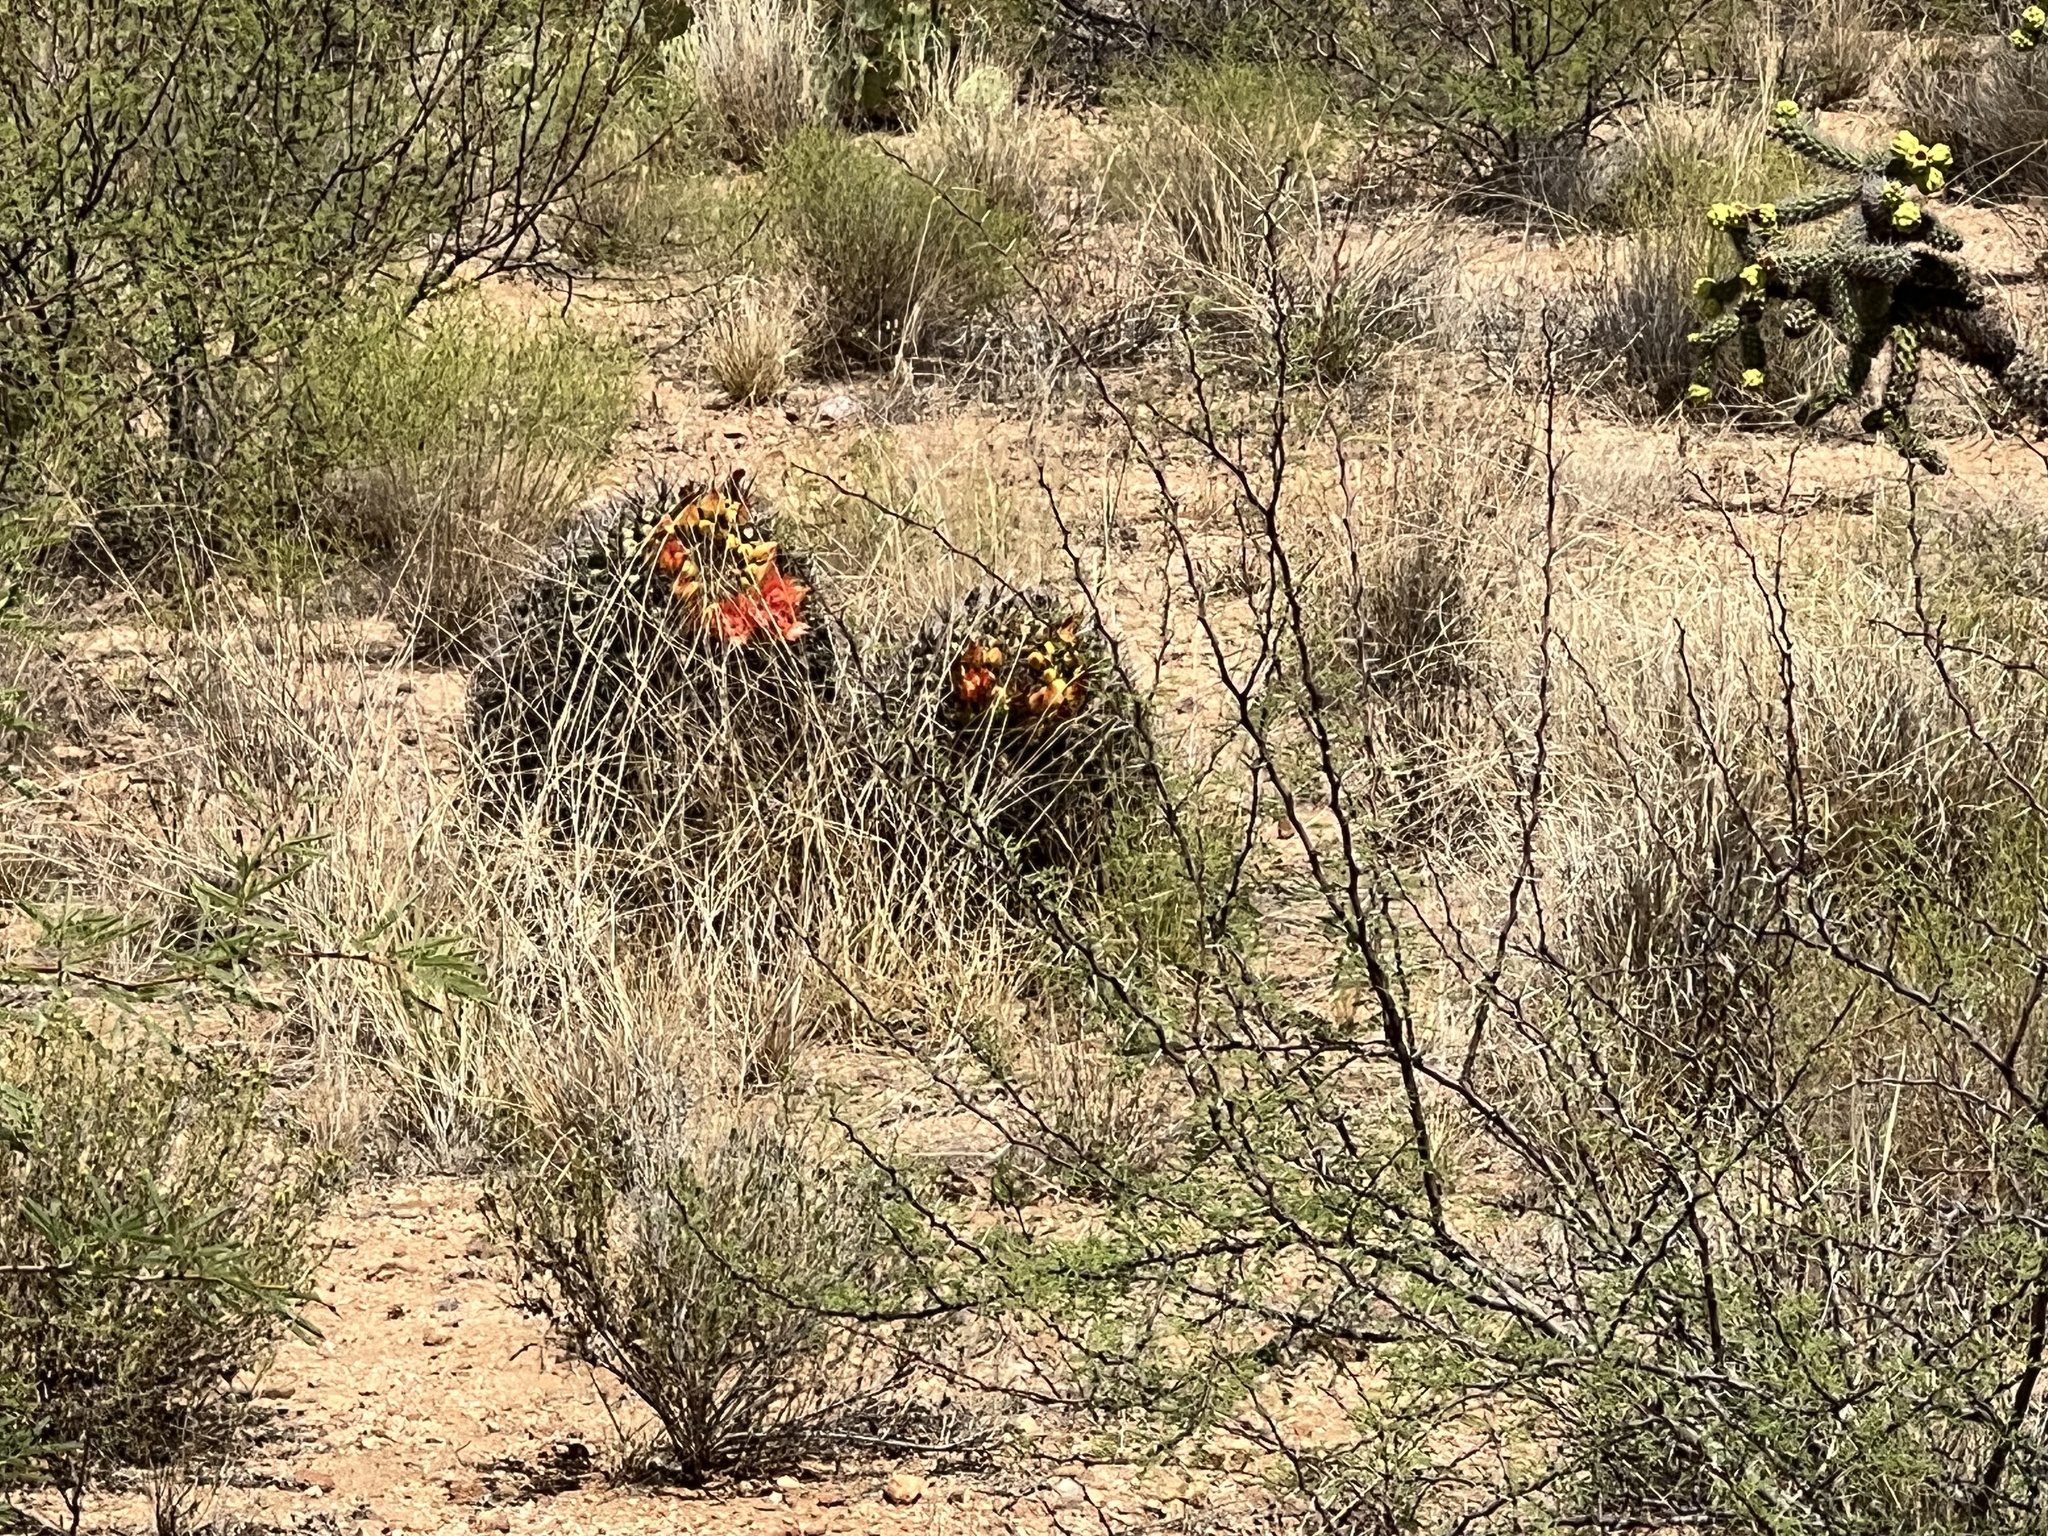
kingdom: Plantae
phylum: Tracheophyta
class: Magnoliopsida
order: Caryophyllales
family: Cactaceae
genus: Ferocactus
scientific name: Ferocactus wislizeni
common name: Candy barrel cactus
